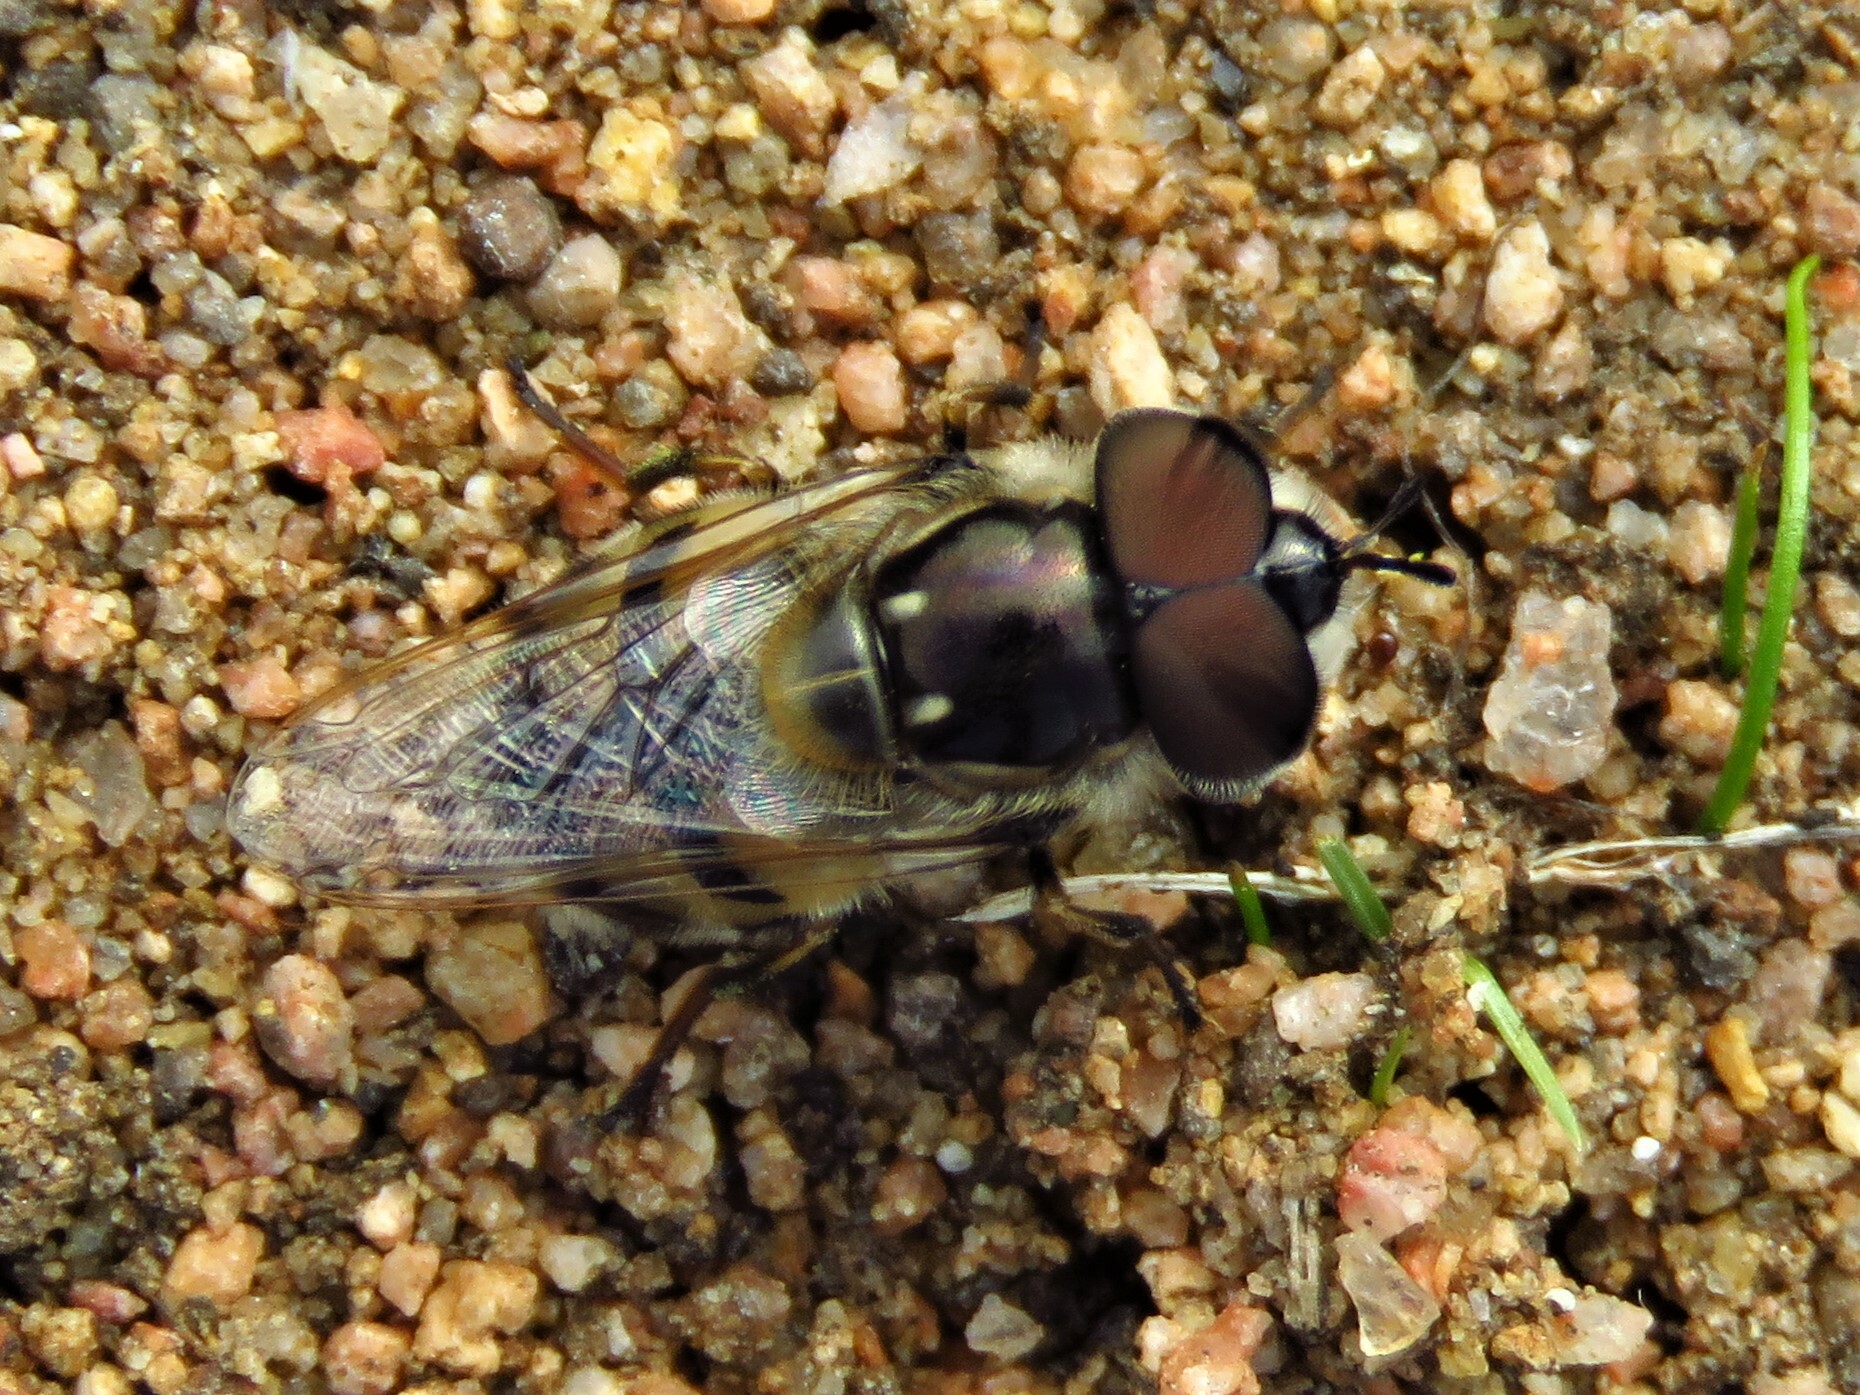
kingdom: Animalia
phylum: Arthropoda
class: Insecta
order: Diptera
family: Syrphidae
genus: Copestylum
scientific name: Copestylum marginatum
